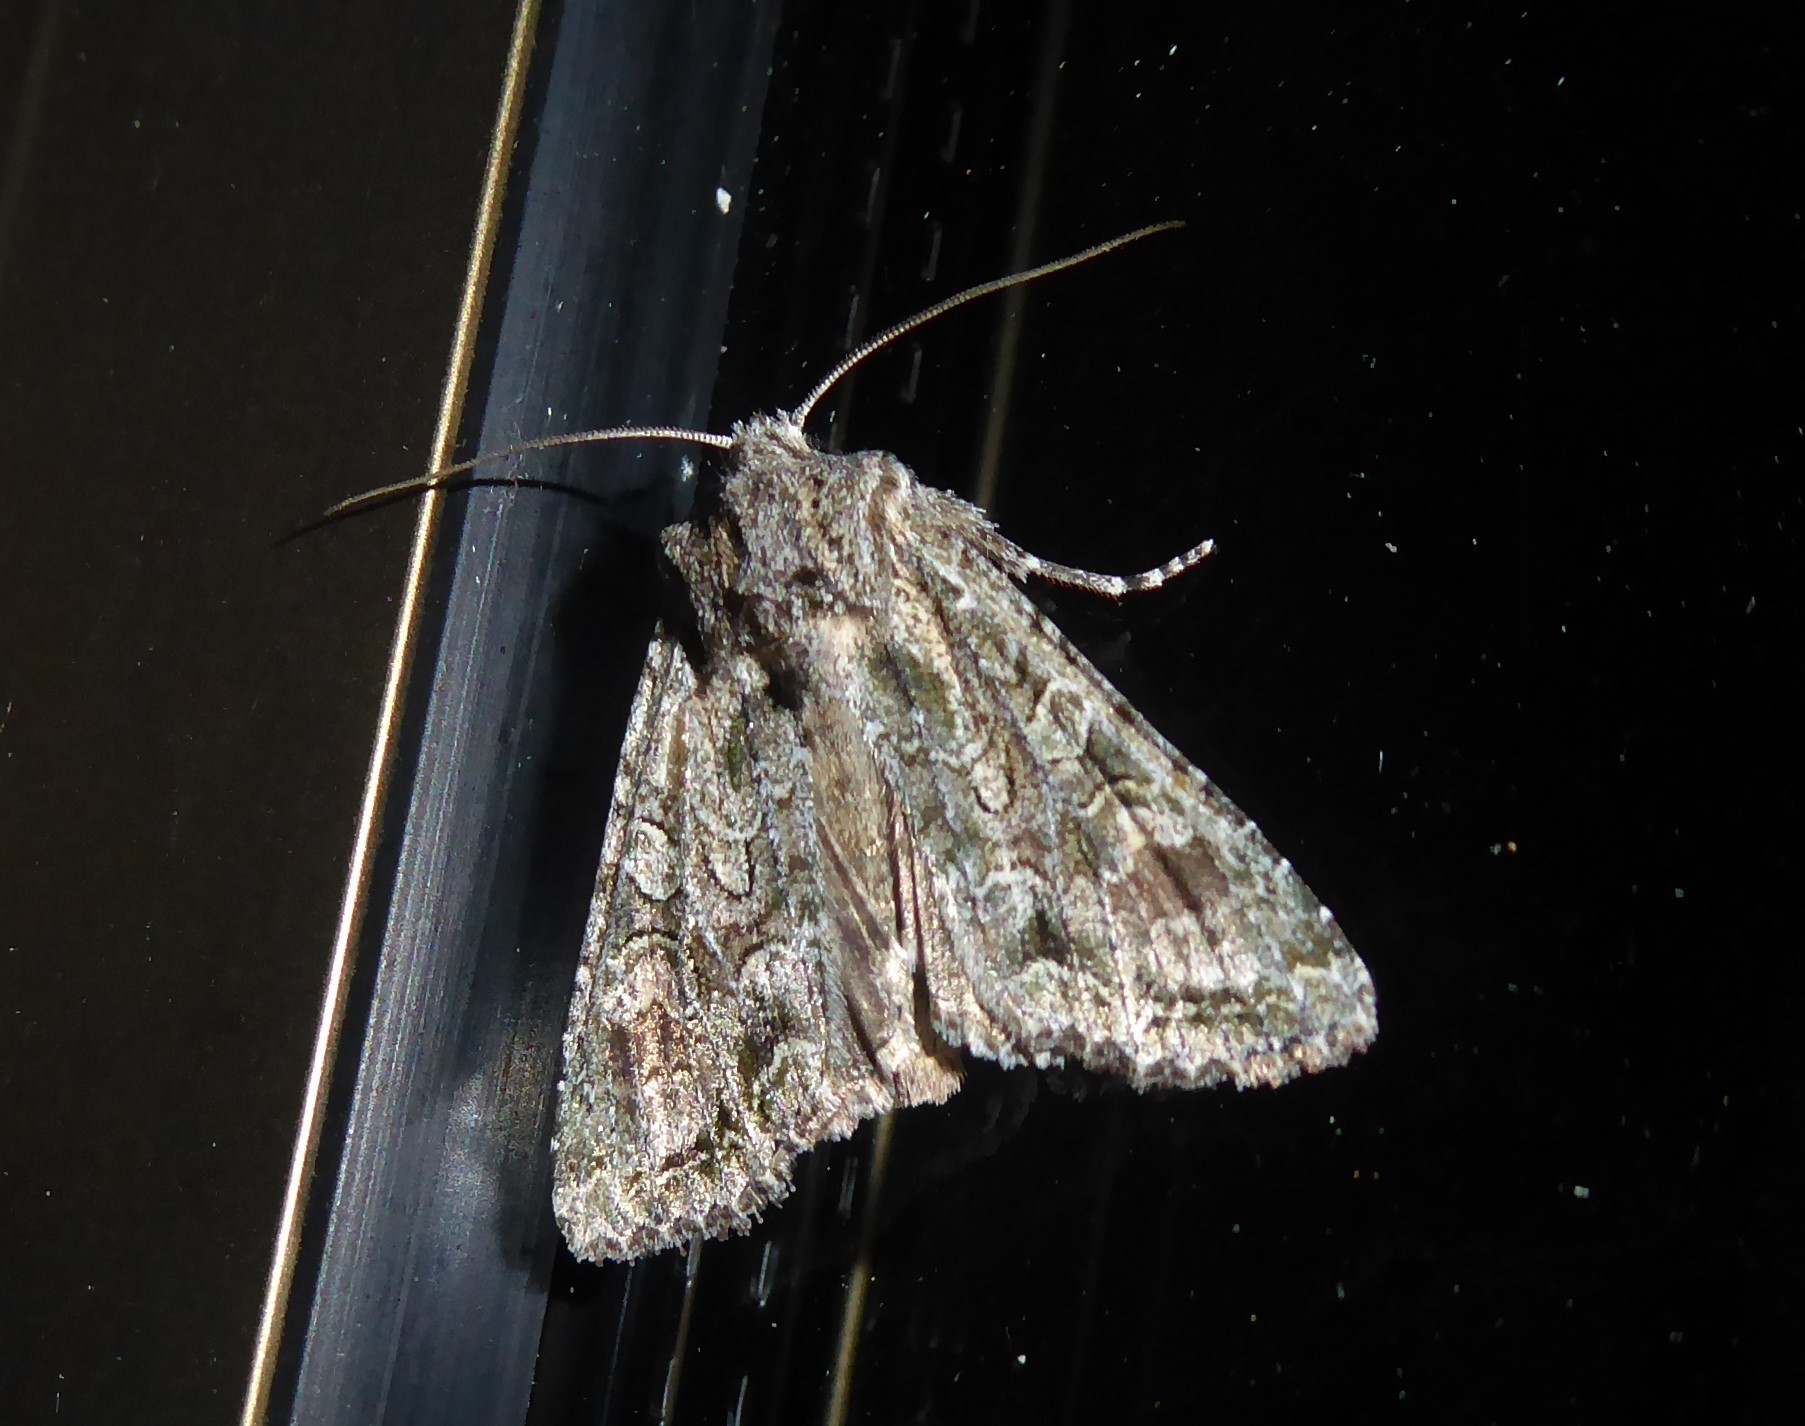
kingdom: Animalia
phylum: Arthropoda
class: Insecta
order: Lepidoptera
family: Noctuidae
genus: Ichneutica
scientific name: Ichneutica mutans
